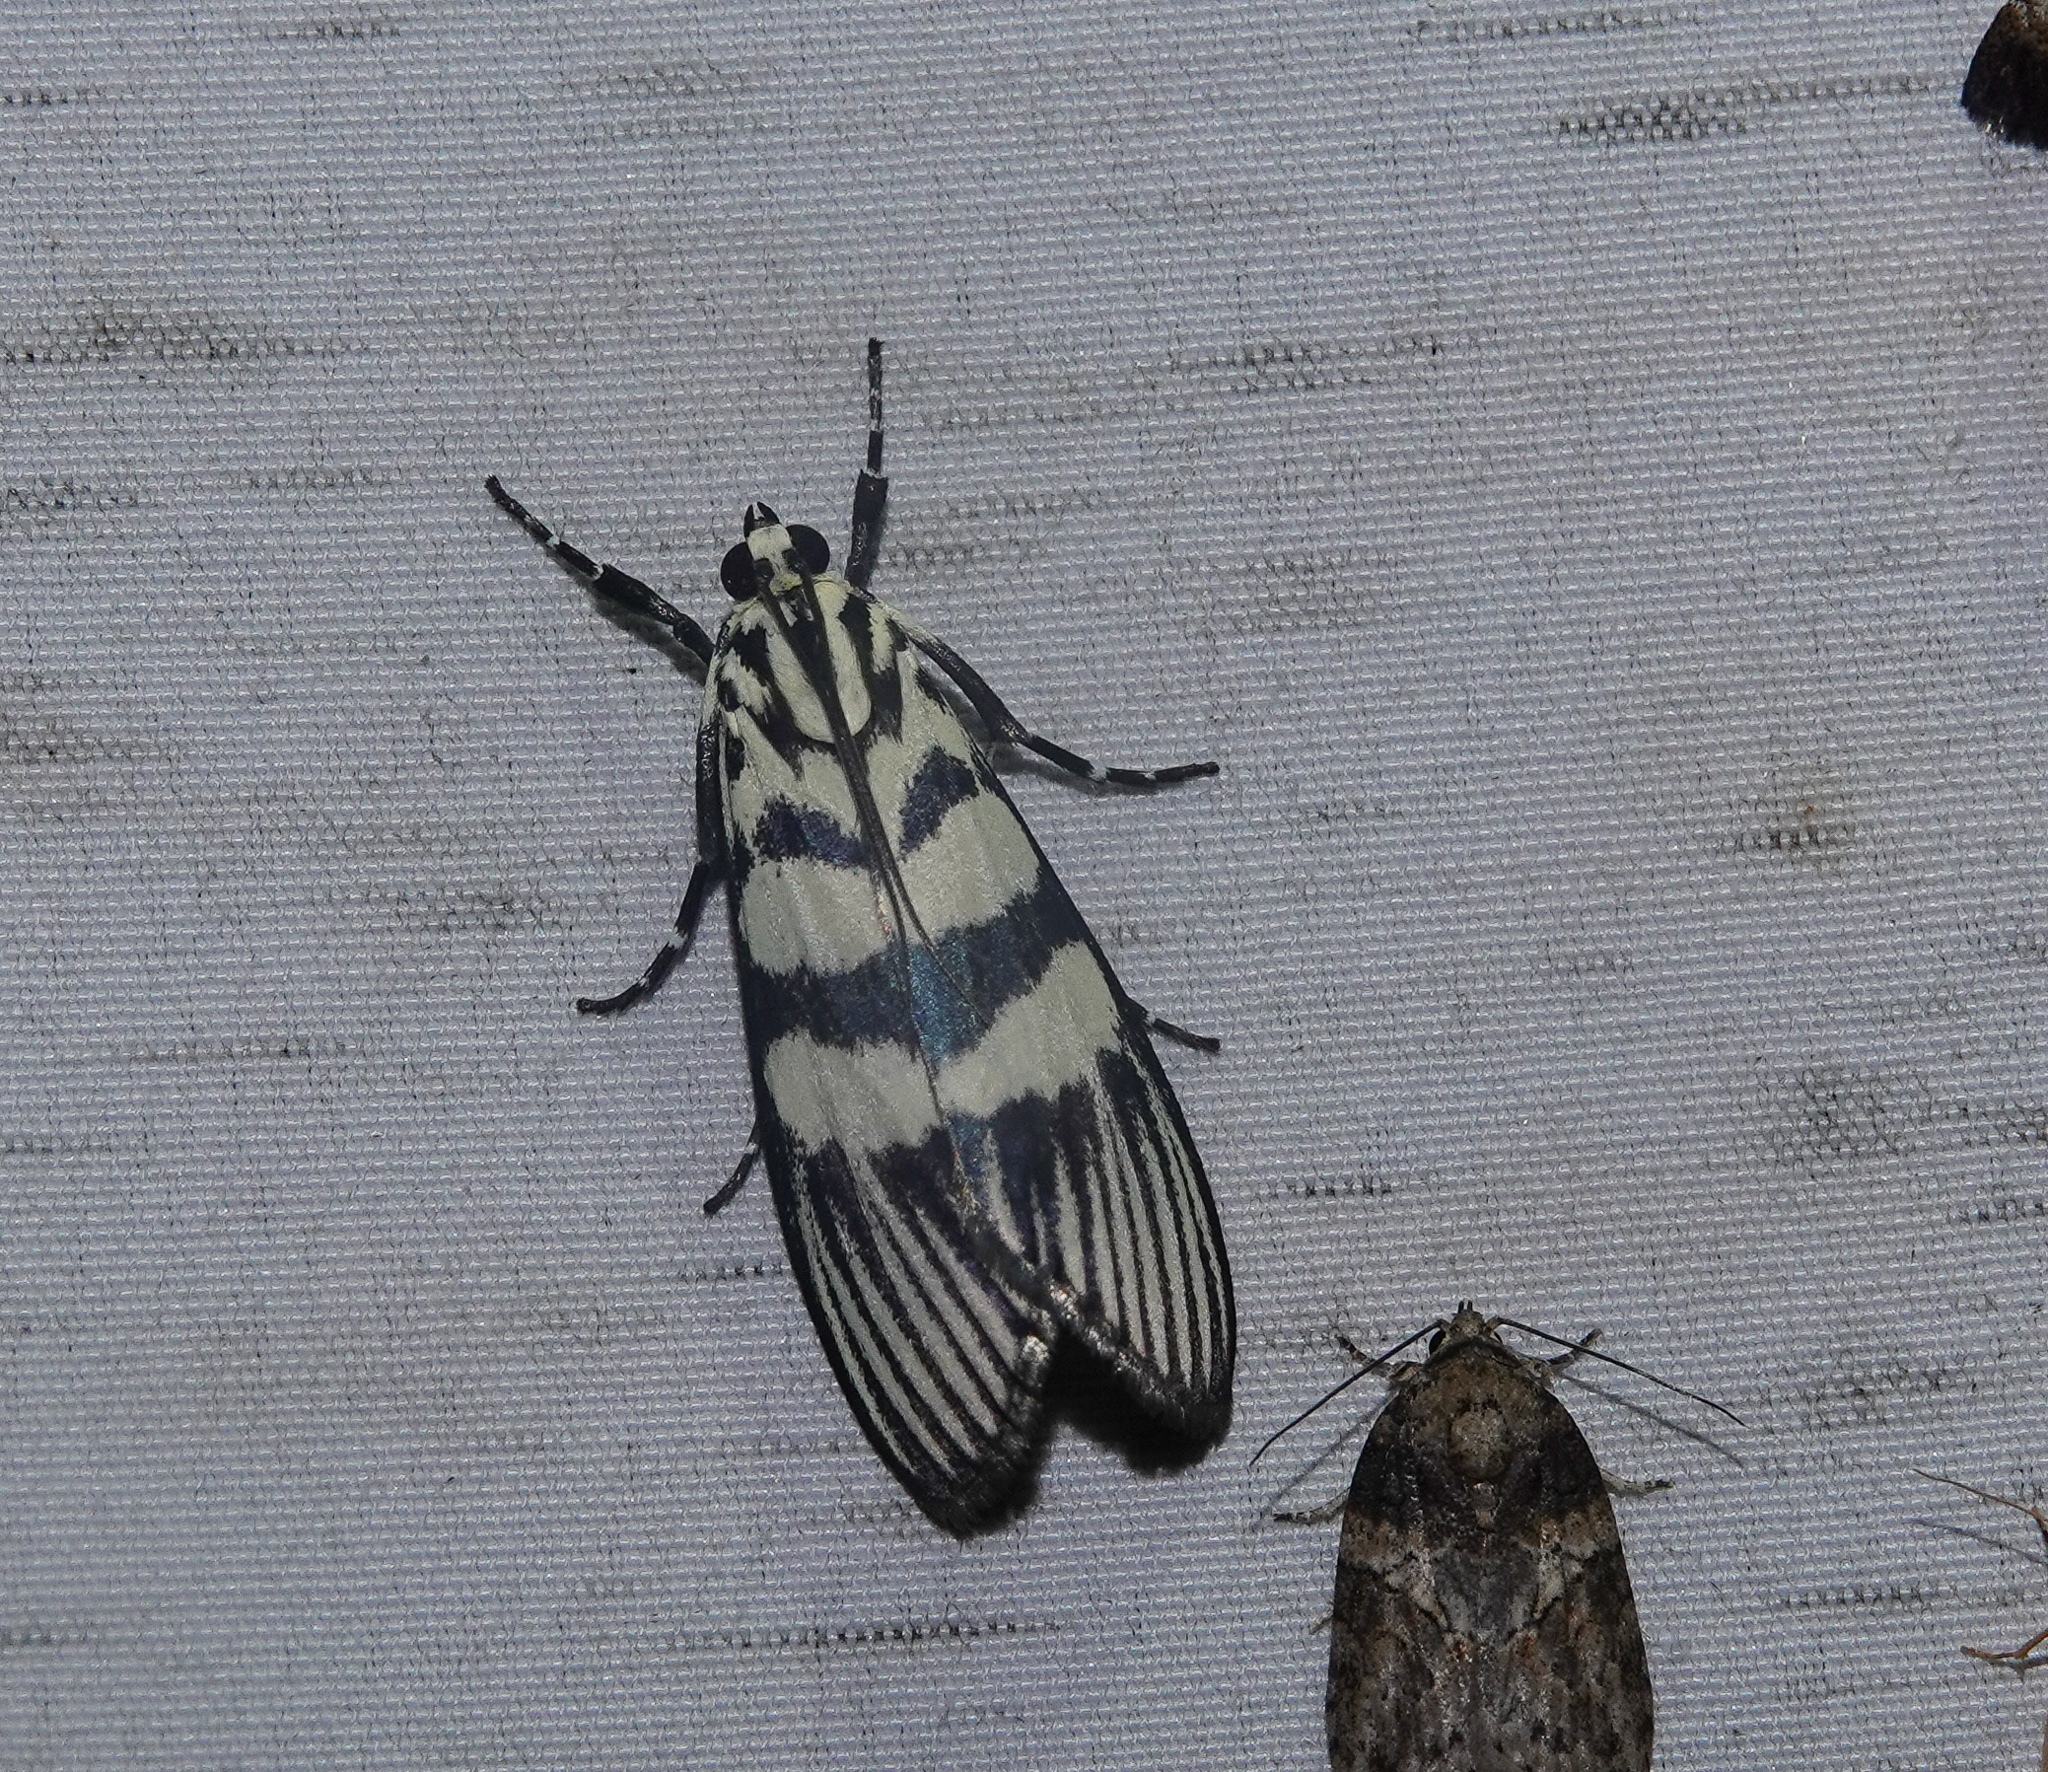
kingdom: Animalia
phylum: Arthropoda
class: Insecta
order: Lepidoptera
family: Crambidae
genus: Heortia
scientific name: Heortia vitessoides
